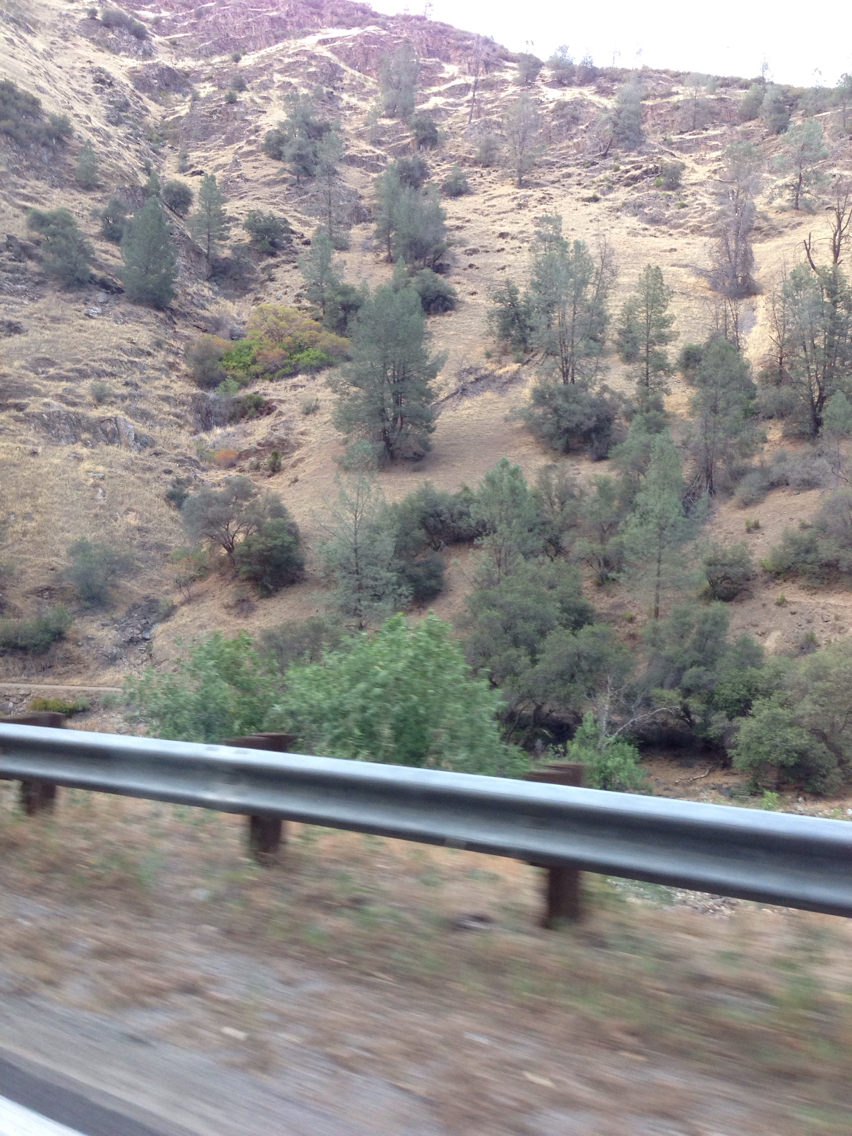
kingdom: Plantae
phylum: Tracheophyta
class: Pinopsida
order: Pinales
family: Pinaceae
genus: Pinus
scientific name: Pinus sabiniana
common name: Bull pine
